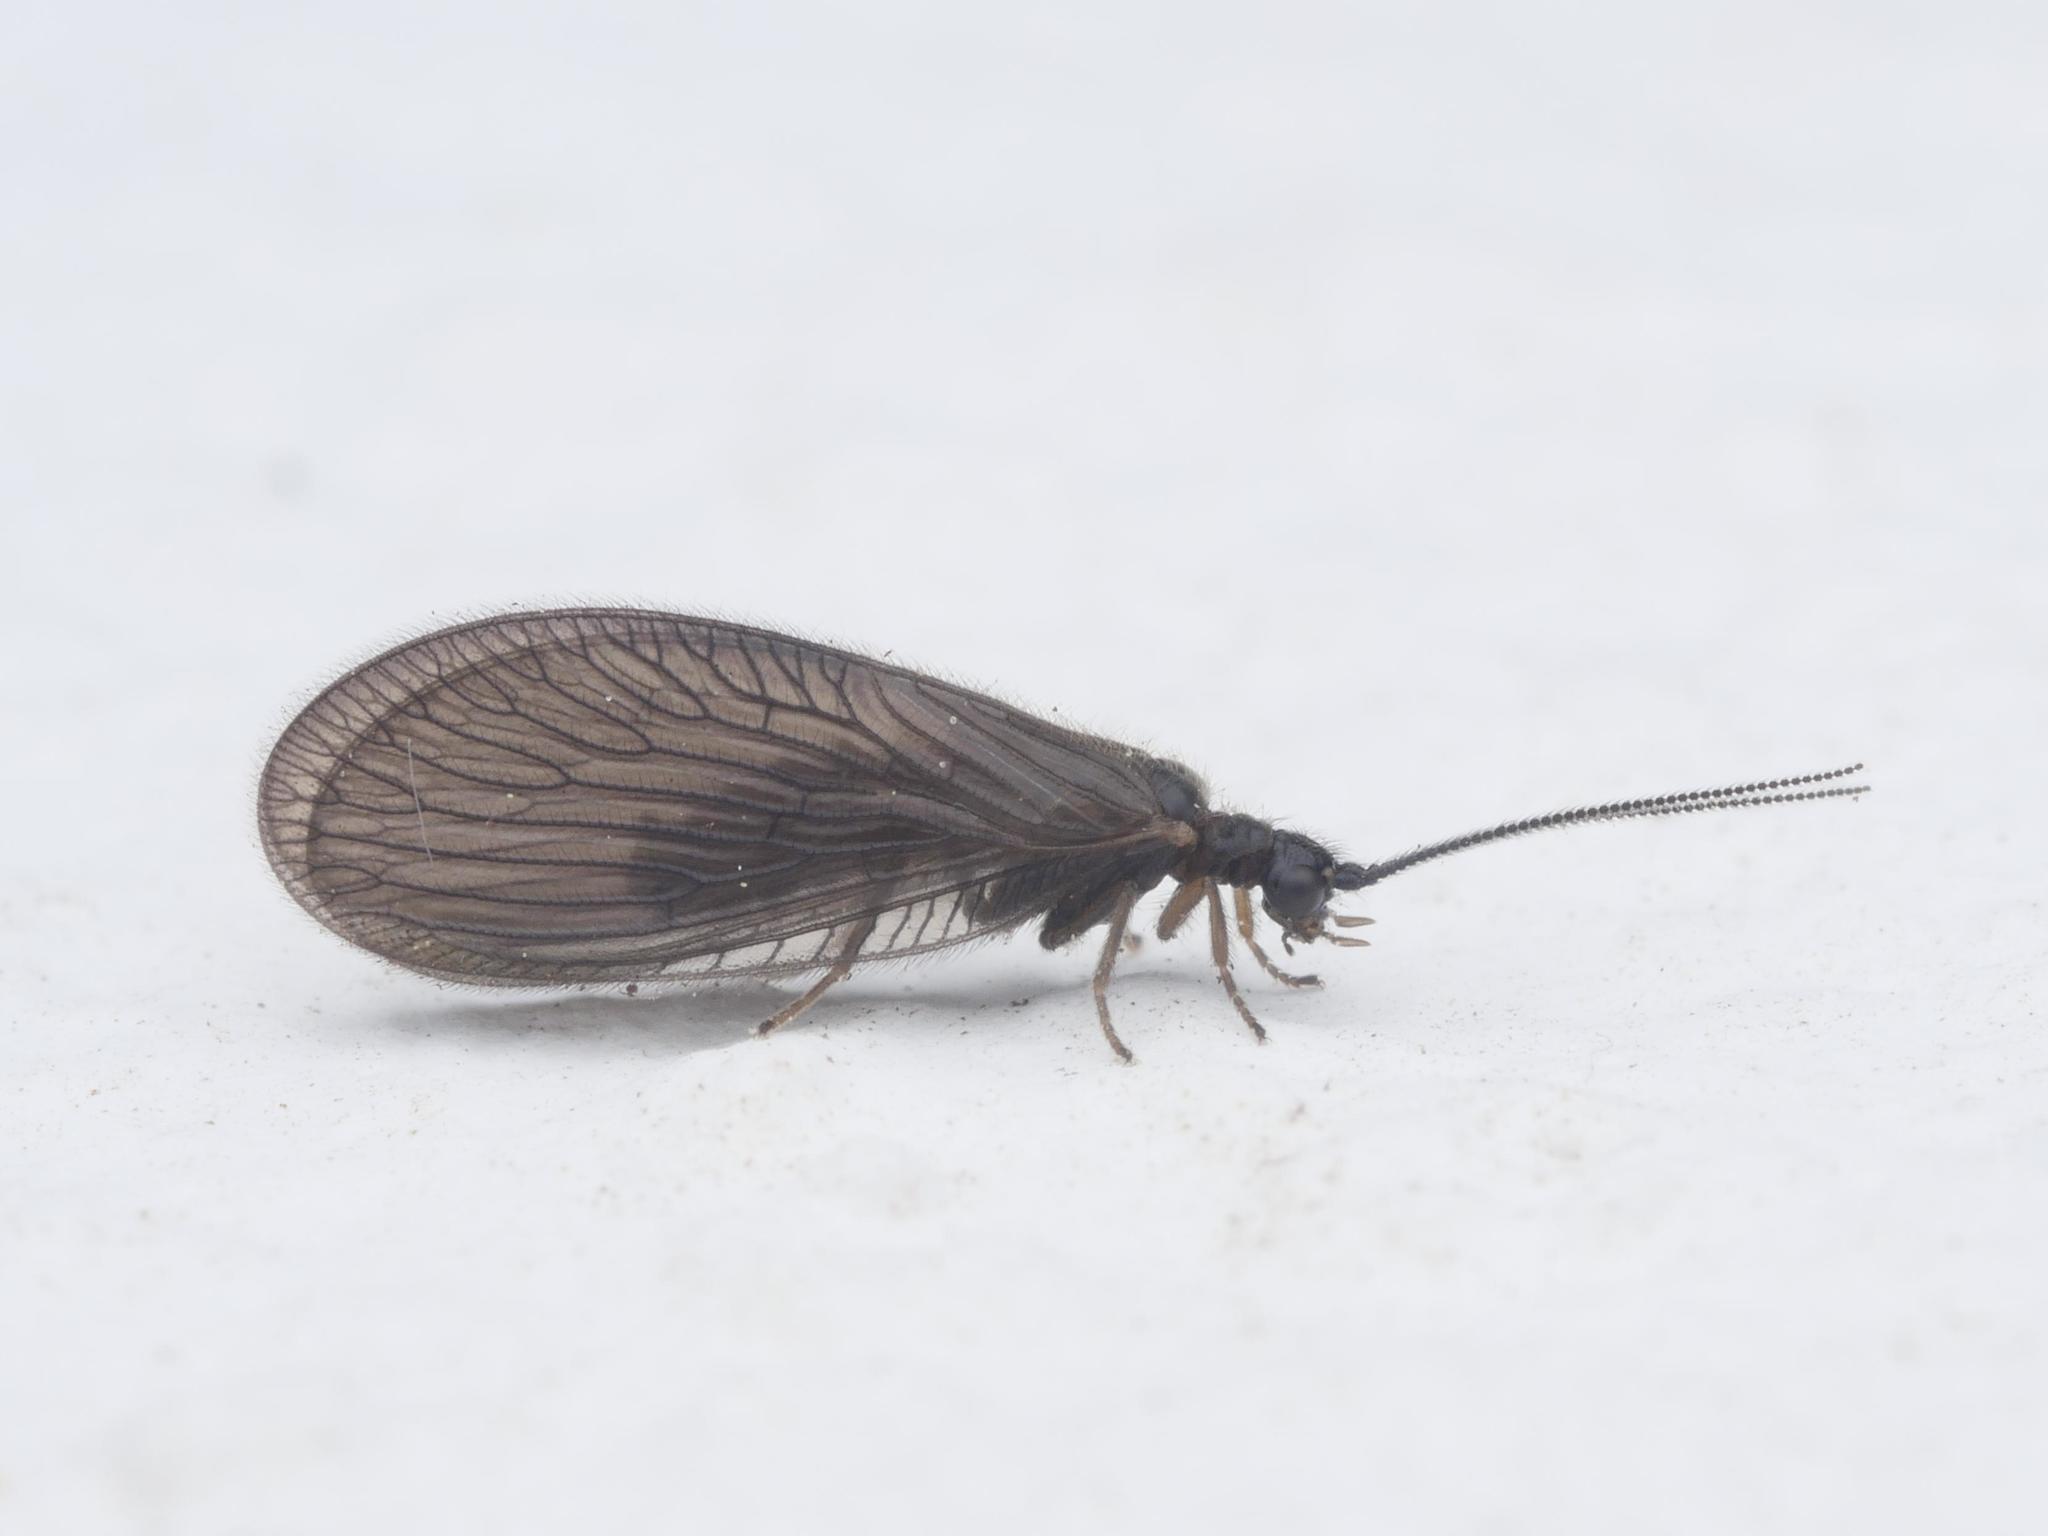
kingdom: Animalia
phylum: Arthropoda
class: Insecta
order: Neuroptera
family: Sisyridae
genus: Sisyra
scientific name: Sisyra nigra
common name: Black spongillafly
